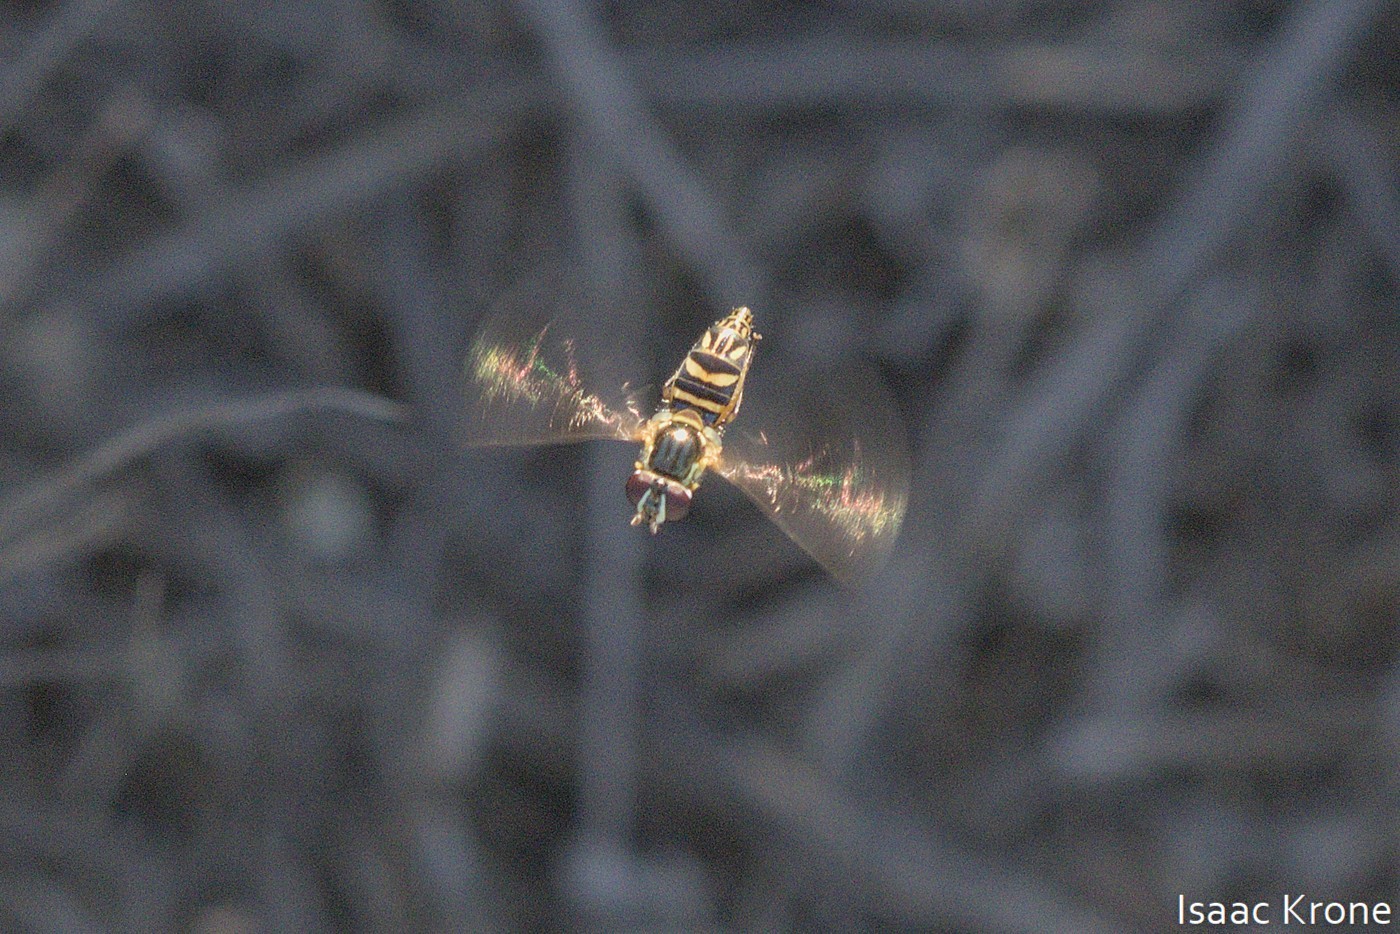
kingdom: Animalia
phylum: Arthropoda
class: Insecta
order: Diptera
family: Syrphidae
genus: Allograpta
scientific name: Allograpta obliqua
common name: Common oblique syrphid
